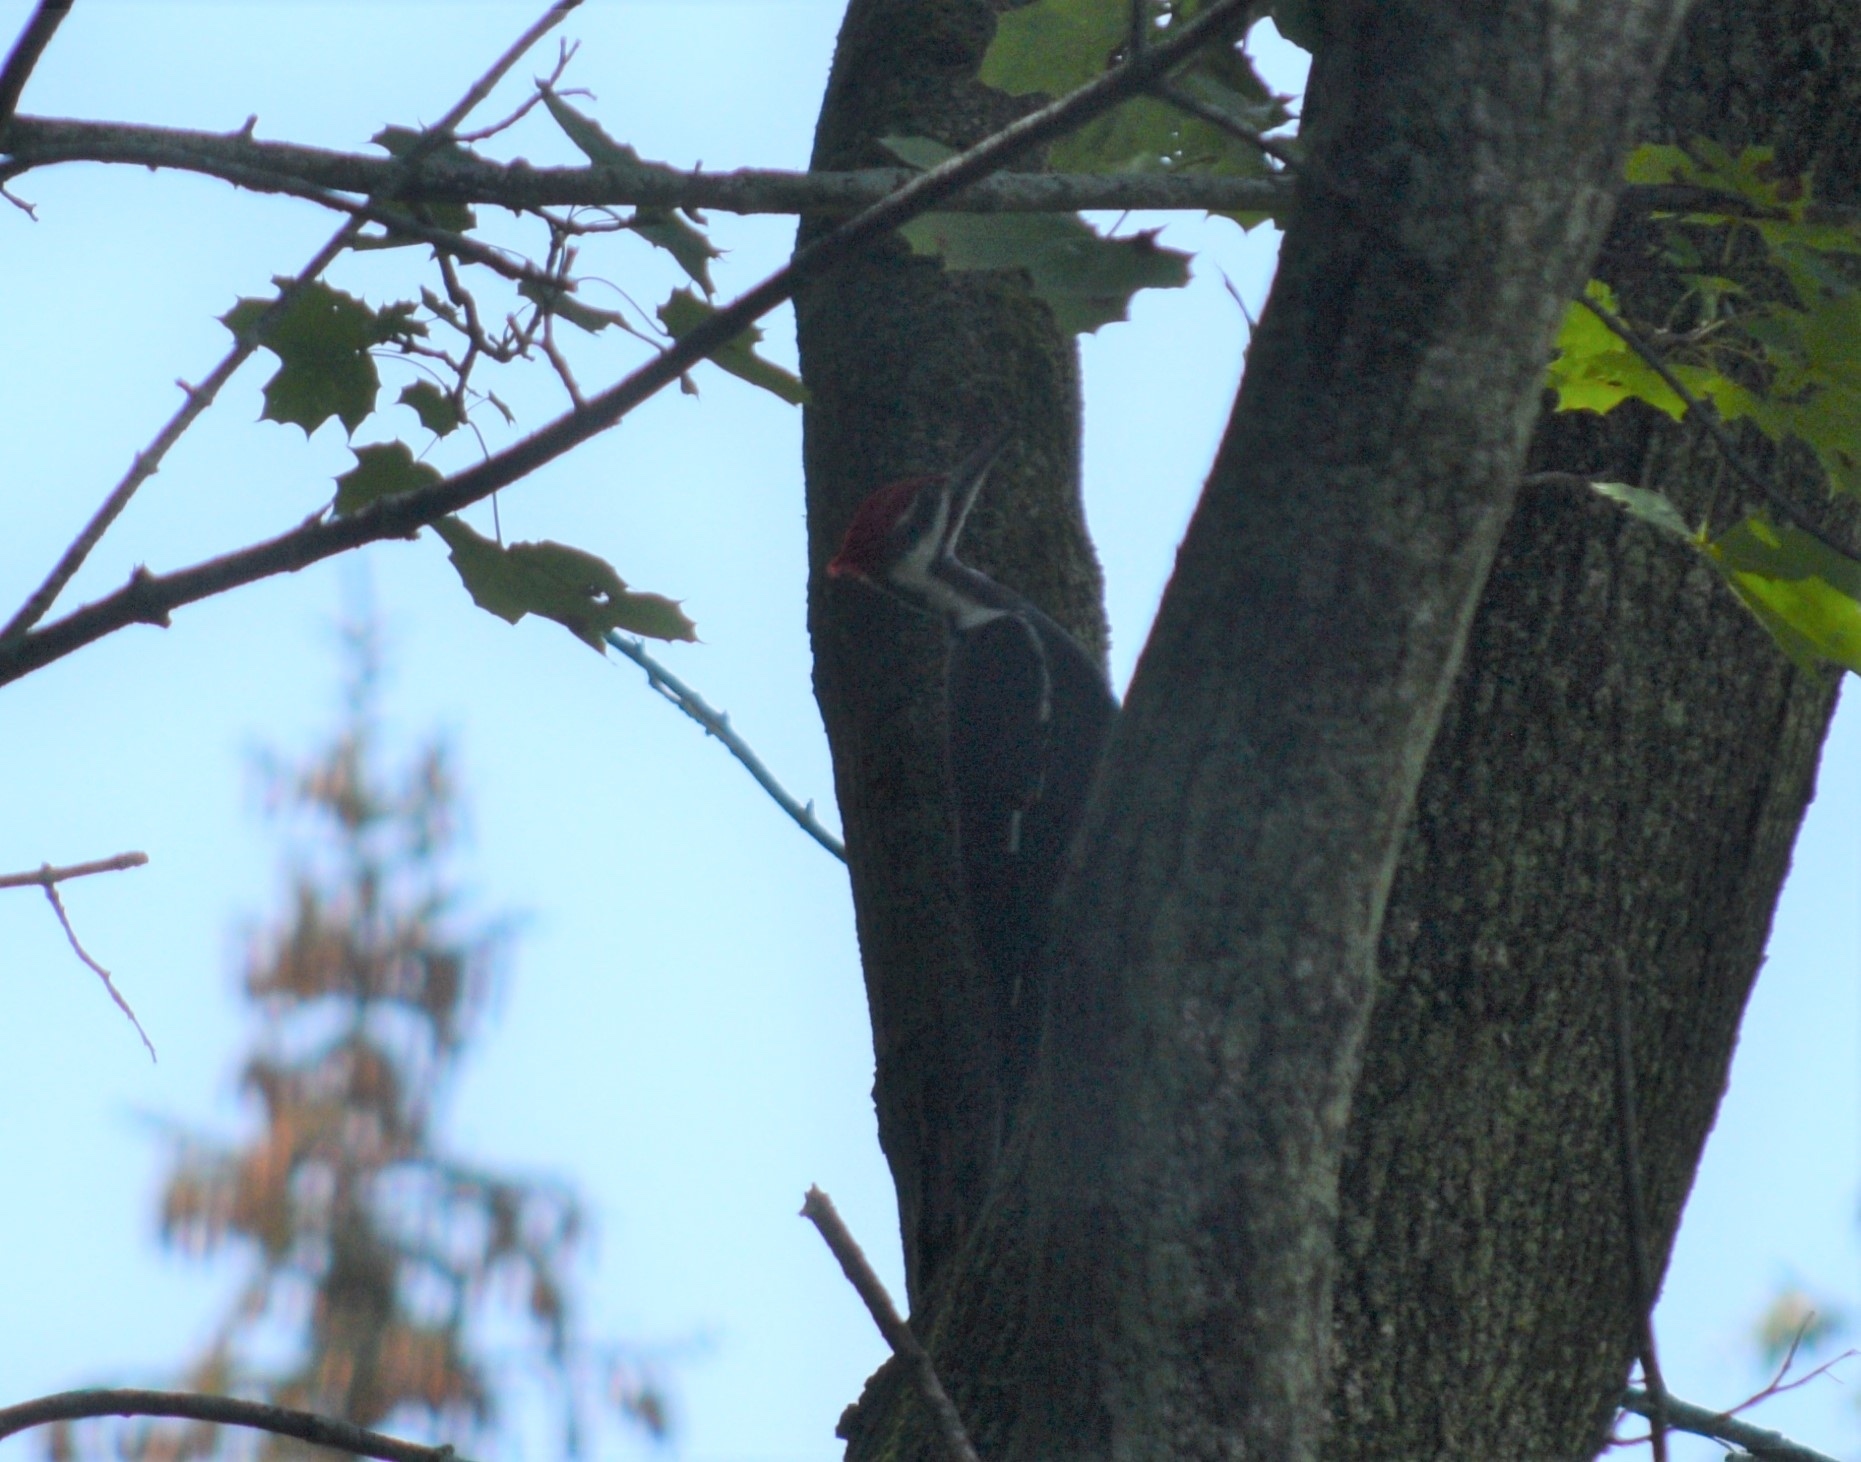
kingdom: Animalia
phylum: Chordata
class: Aves
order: Piciformes
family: Picidae
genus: Dryocopus
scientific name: Dryocopus pileatus
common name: Pileated woodpecker
